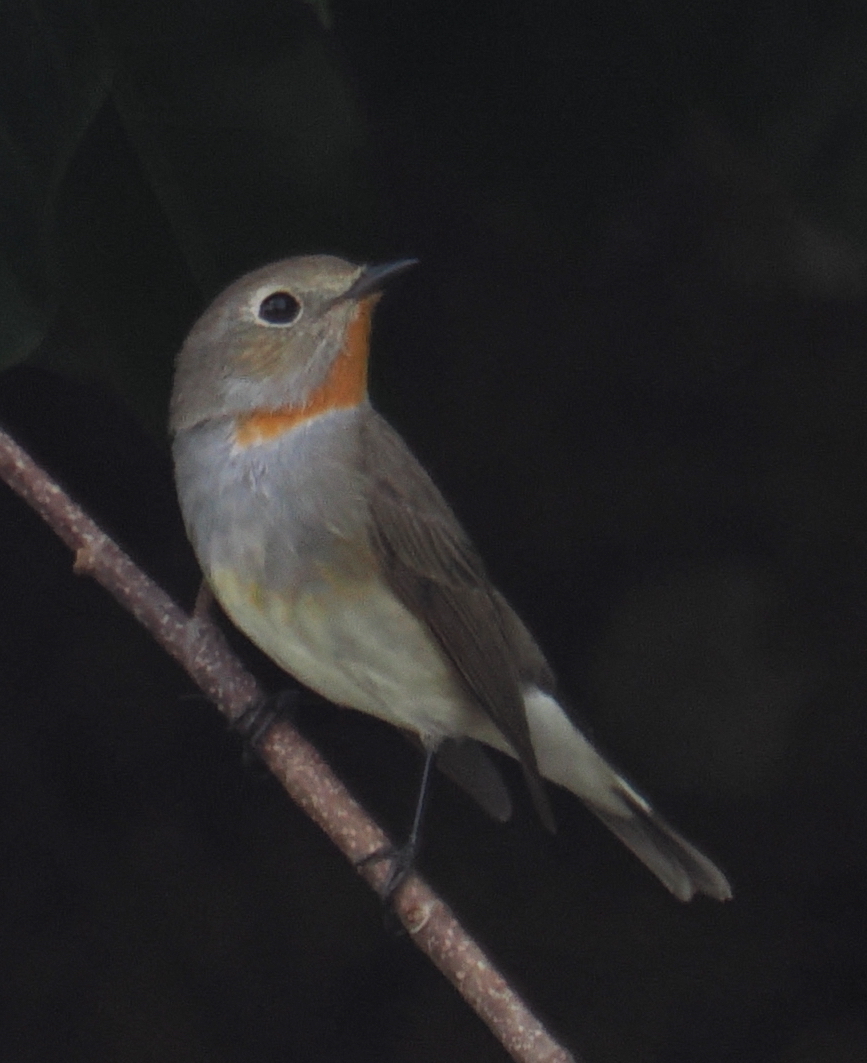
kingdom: Animalia
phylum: Chordata
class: Aves
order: Passeriformes
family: Muscicapidae
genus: Ficedula
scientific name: Ficedula albicilla
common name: Taiga flycatcher
